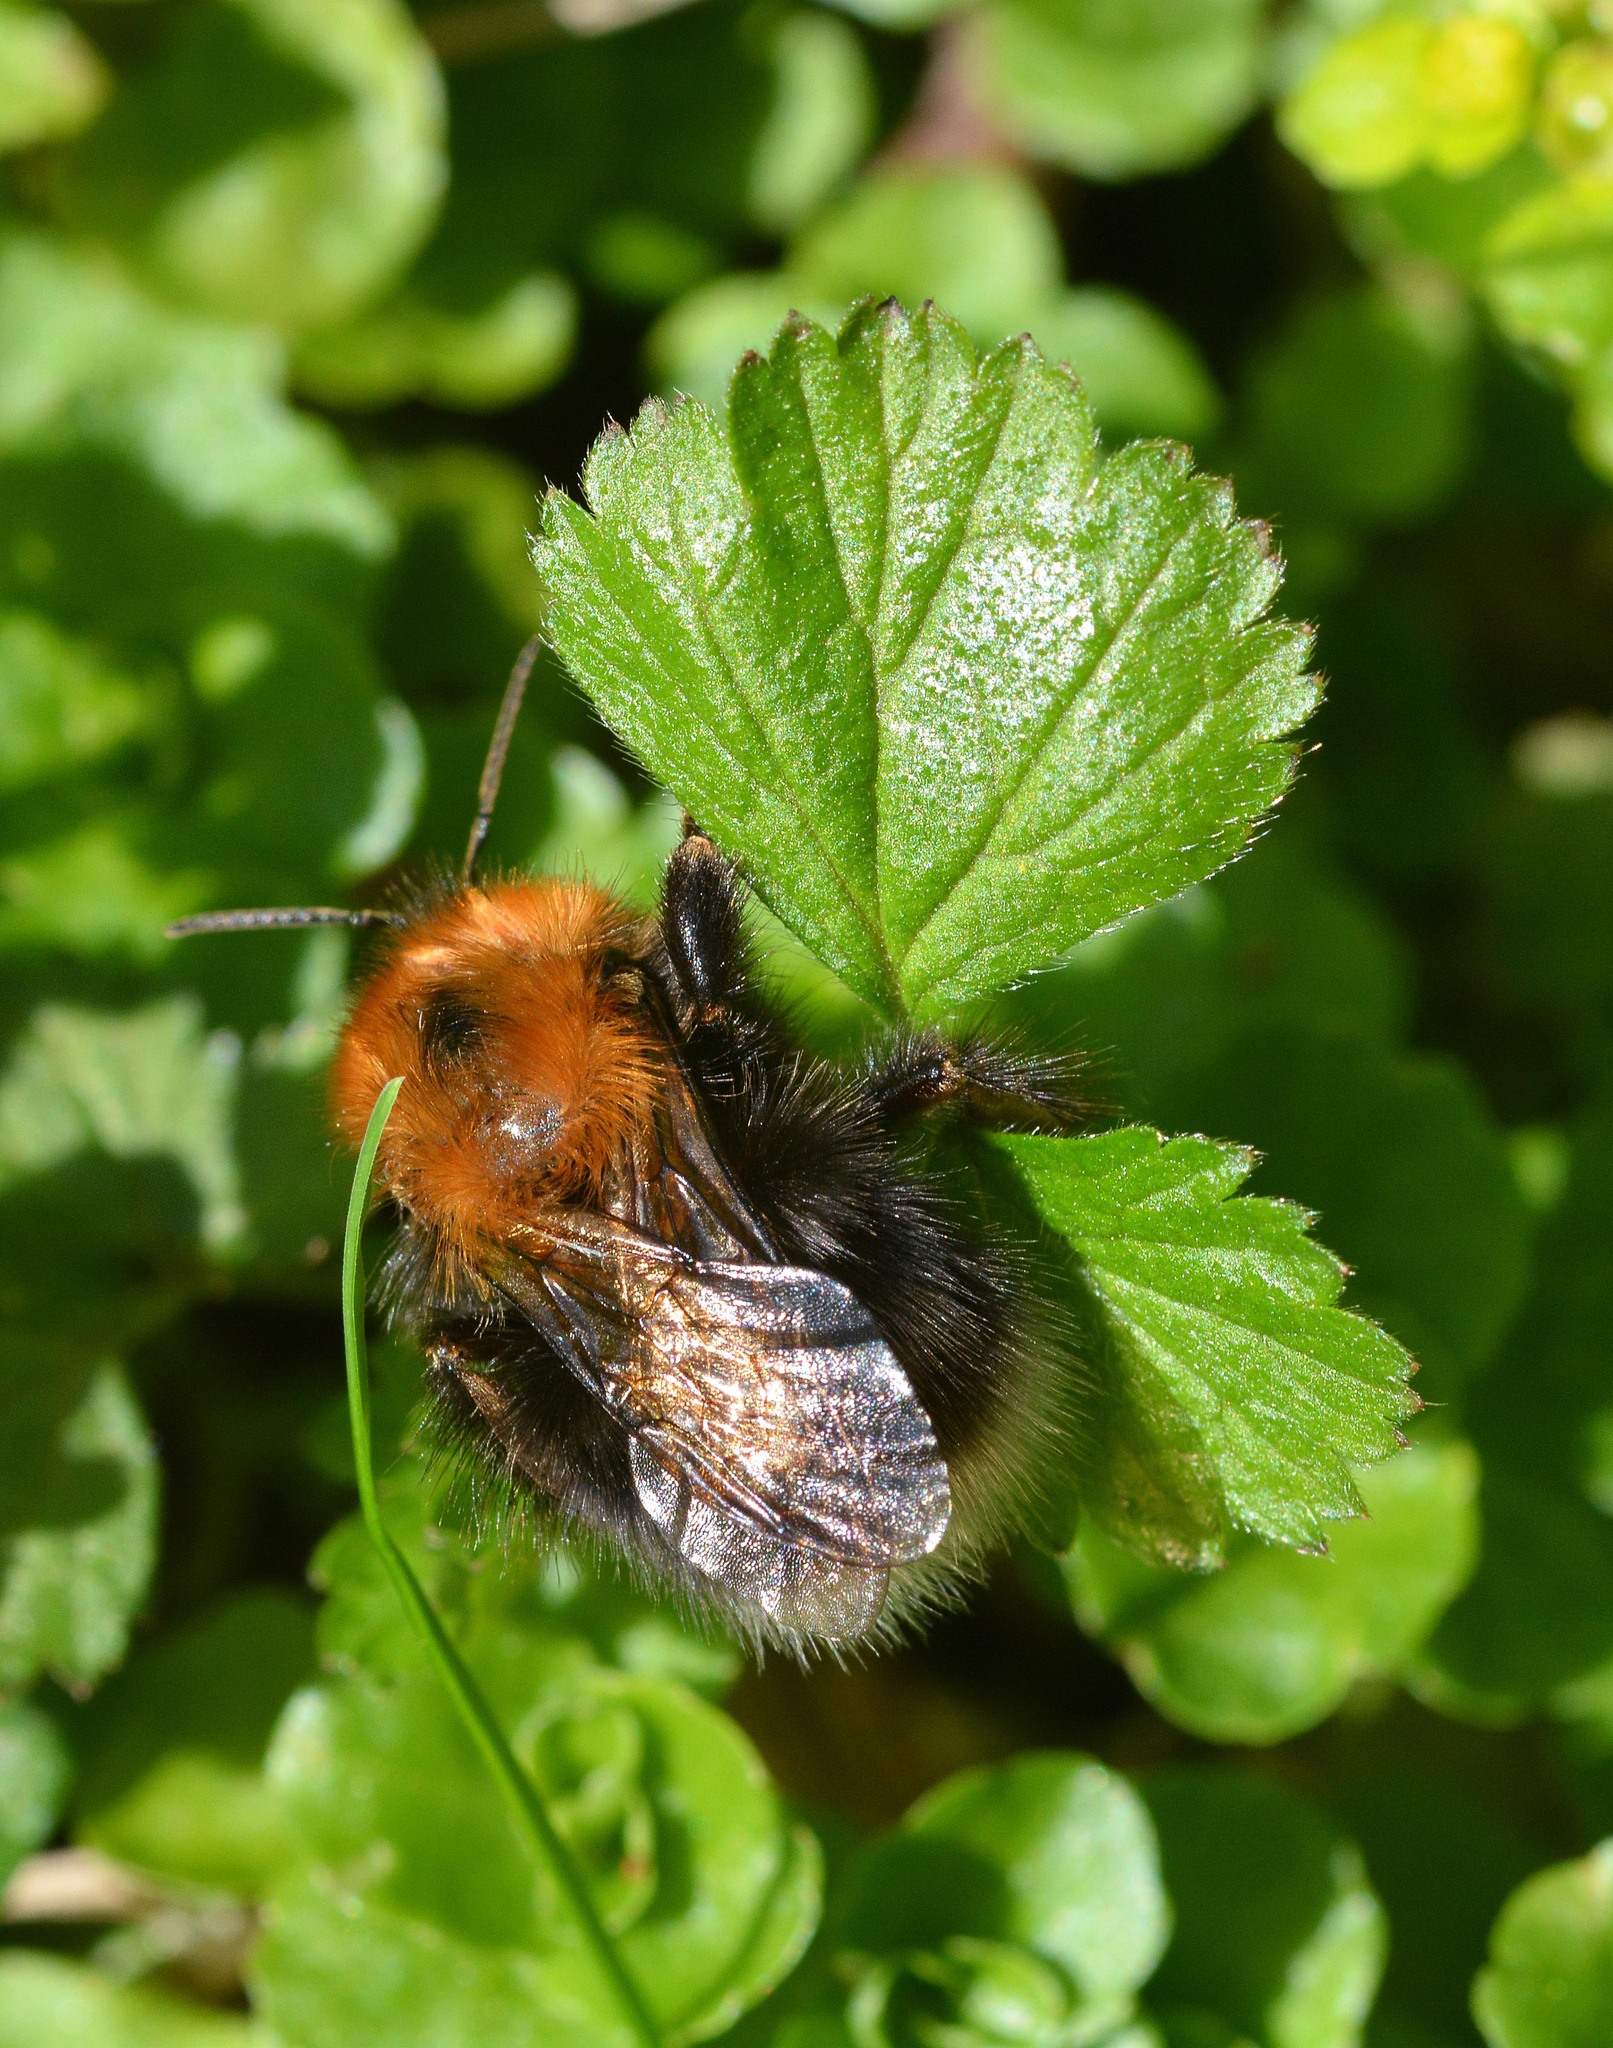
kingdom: Animalia
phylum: Arthropoda
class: Insecta
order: Hymenoptera
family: Apidae
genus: Bombus
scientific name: Bombus hypnorum
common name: New garden bumblebee
